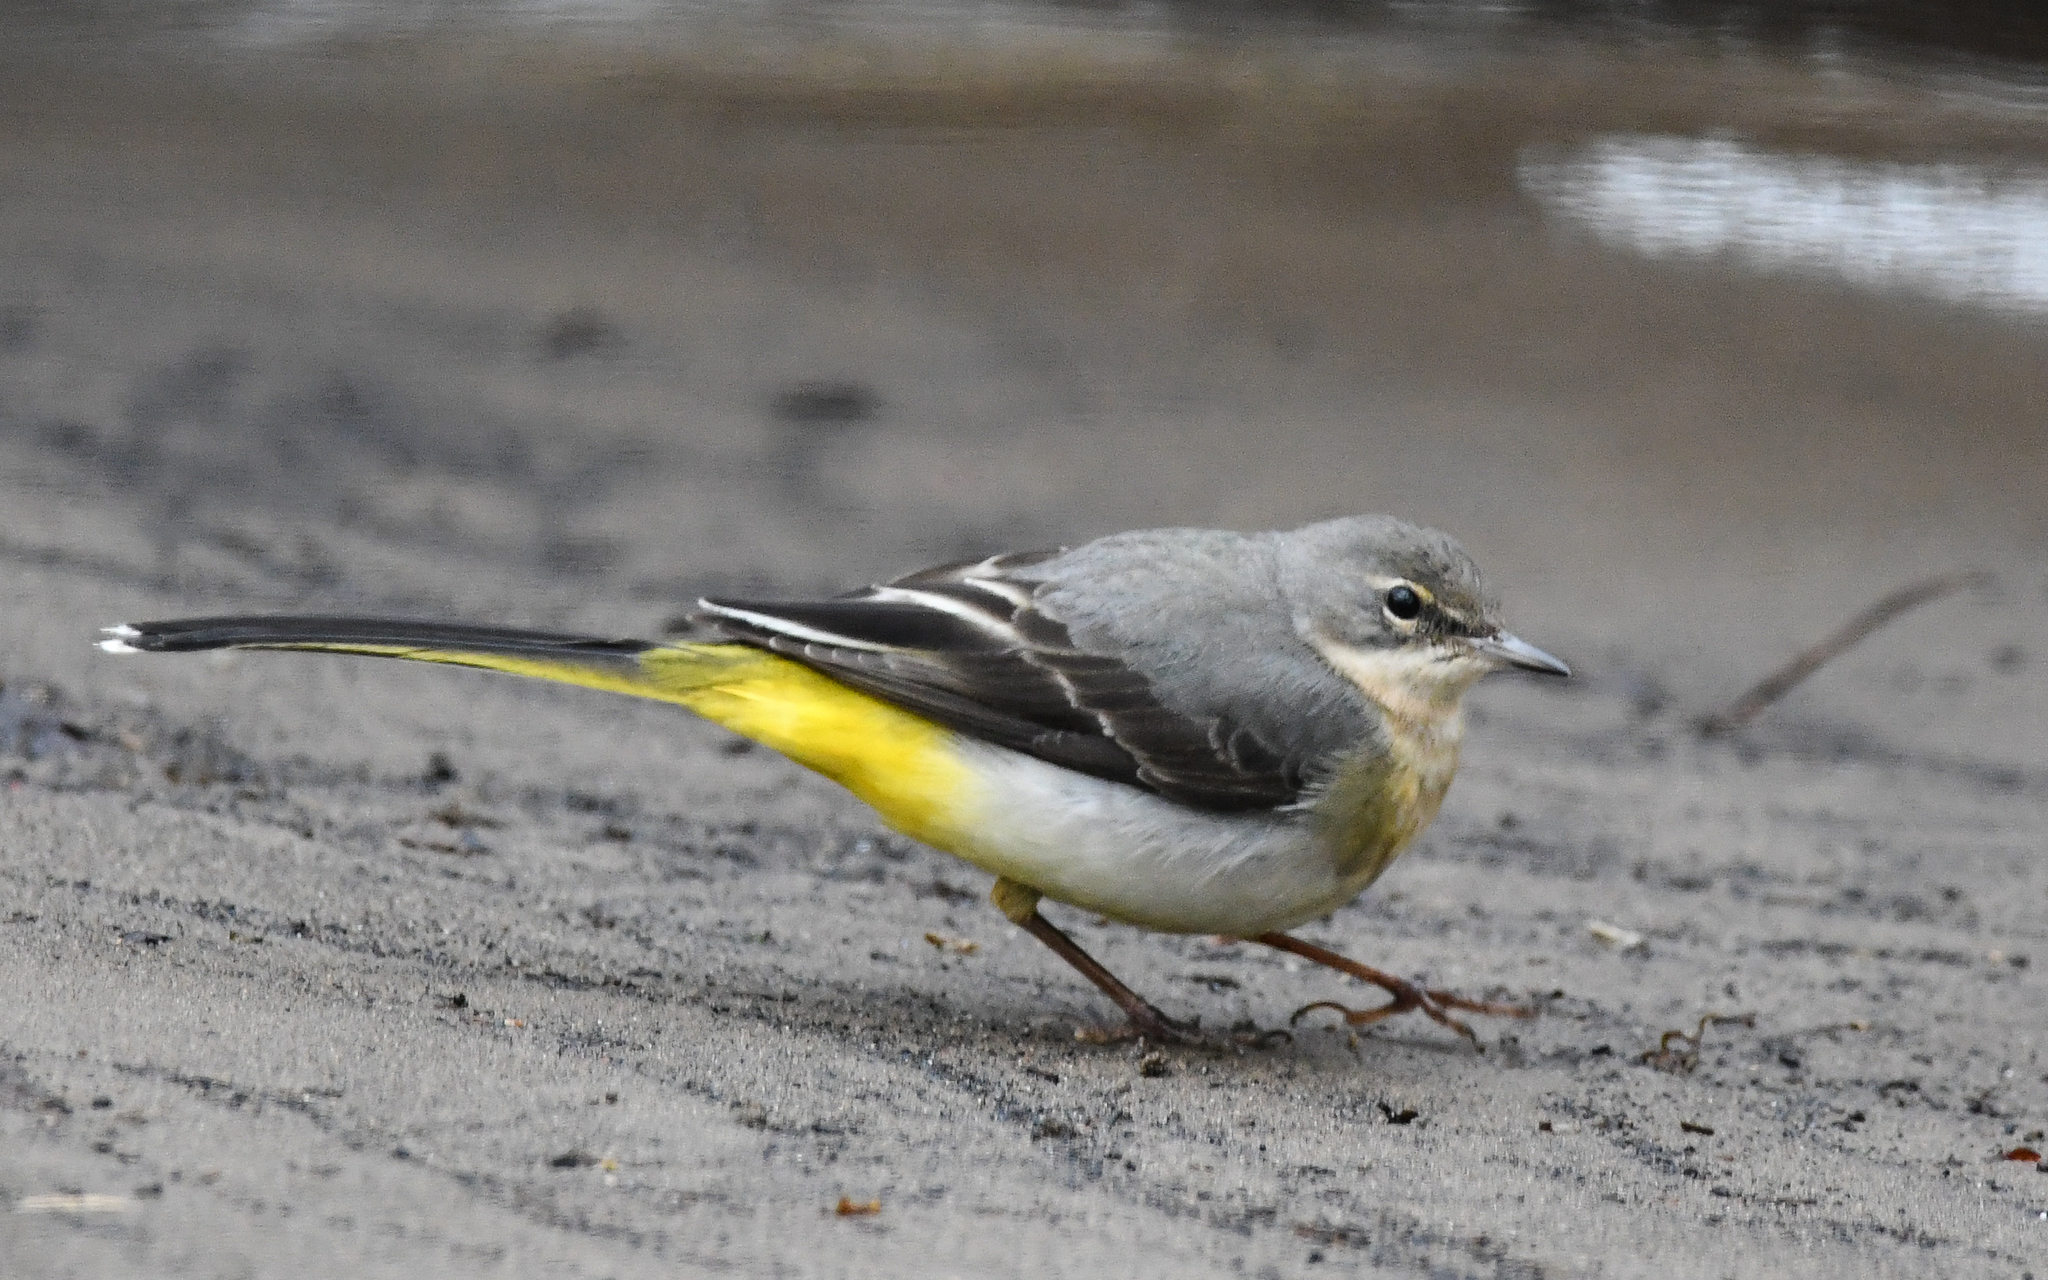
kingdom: Animalia
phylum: Chordata
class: Aves
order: Passeriformes
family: Motacillidae
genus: Motacilla
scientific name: Motacilla cinerea
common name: Grey wagtail
